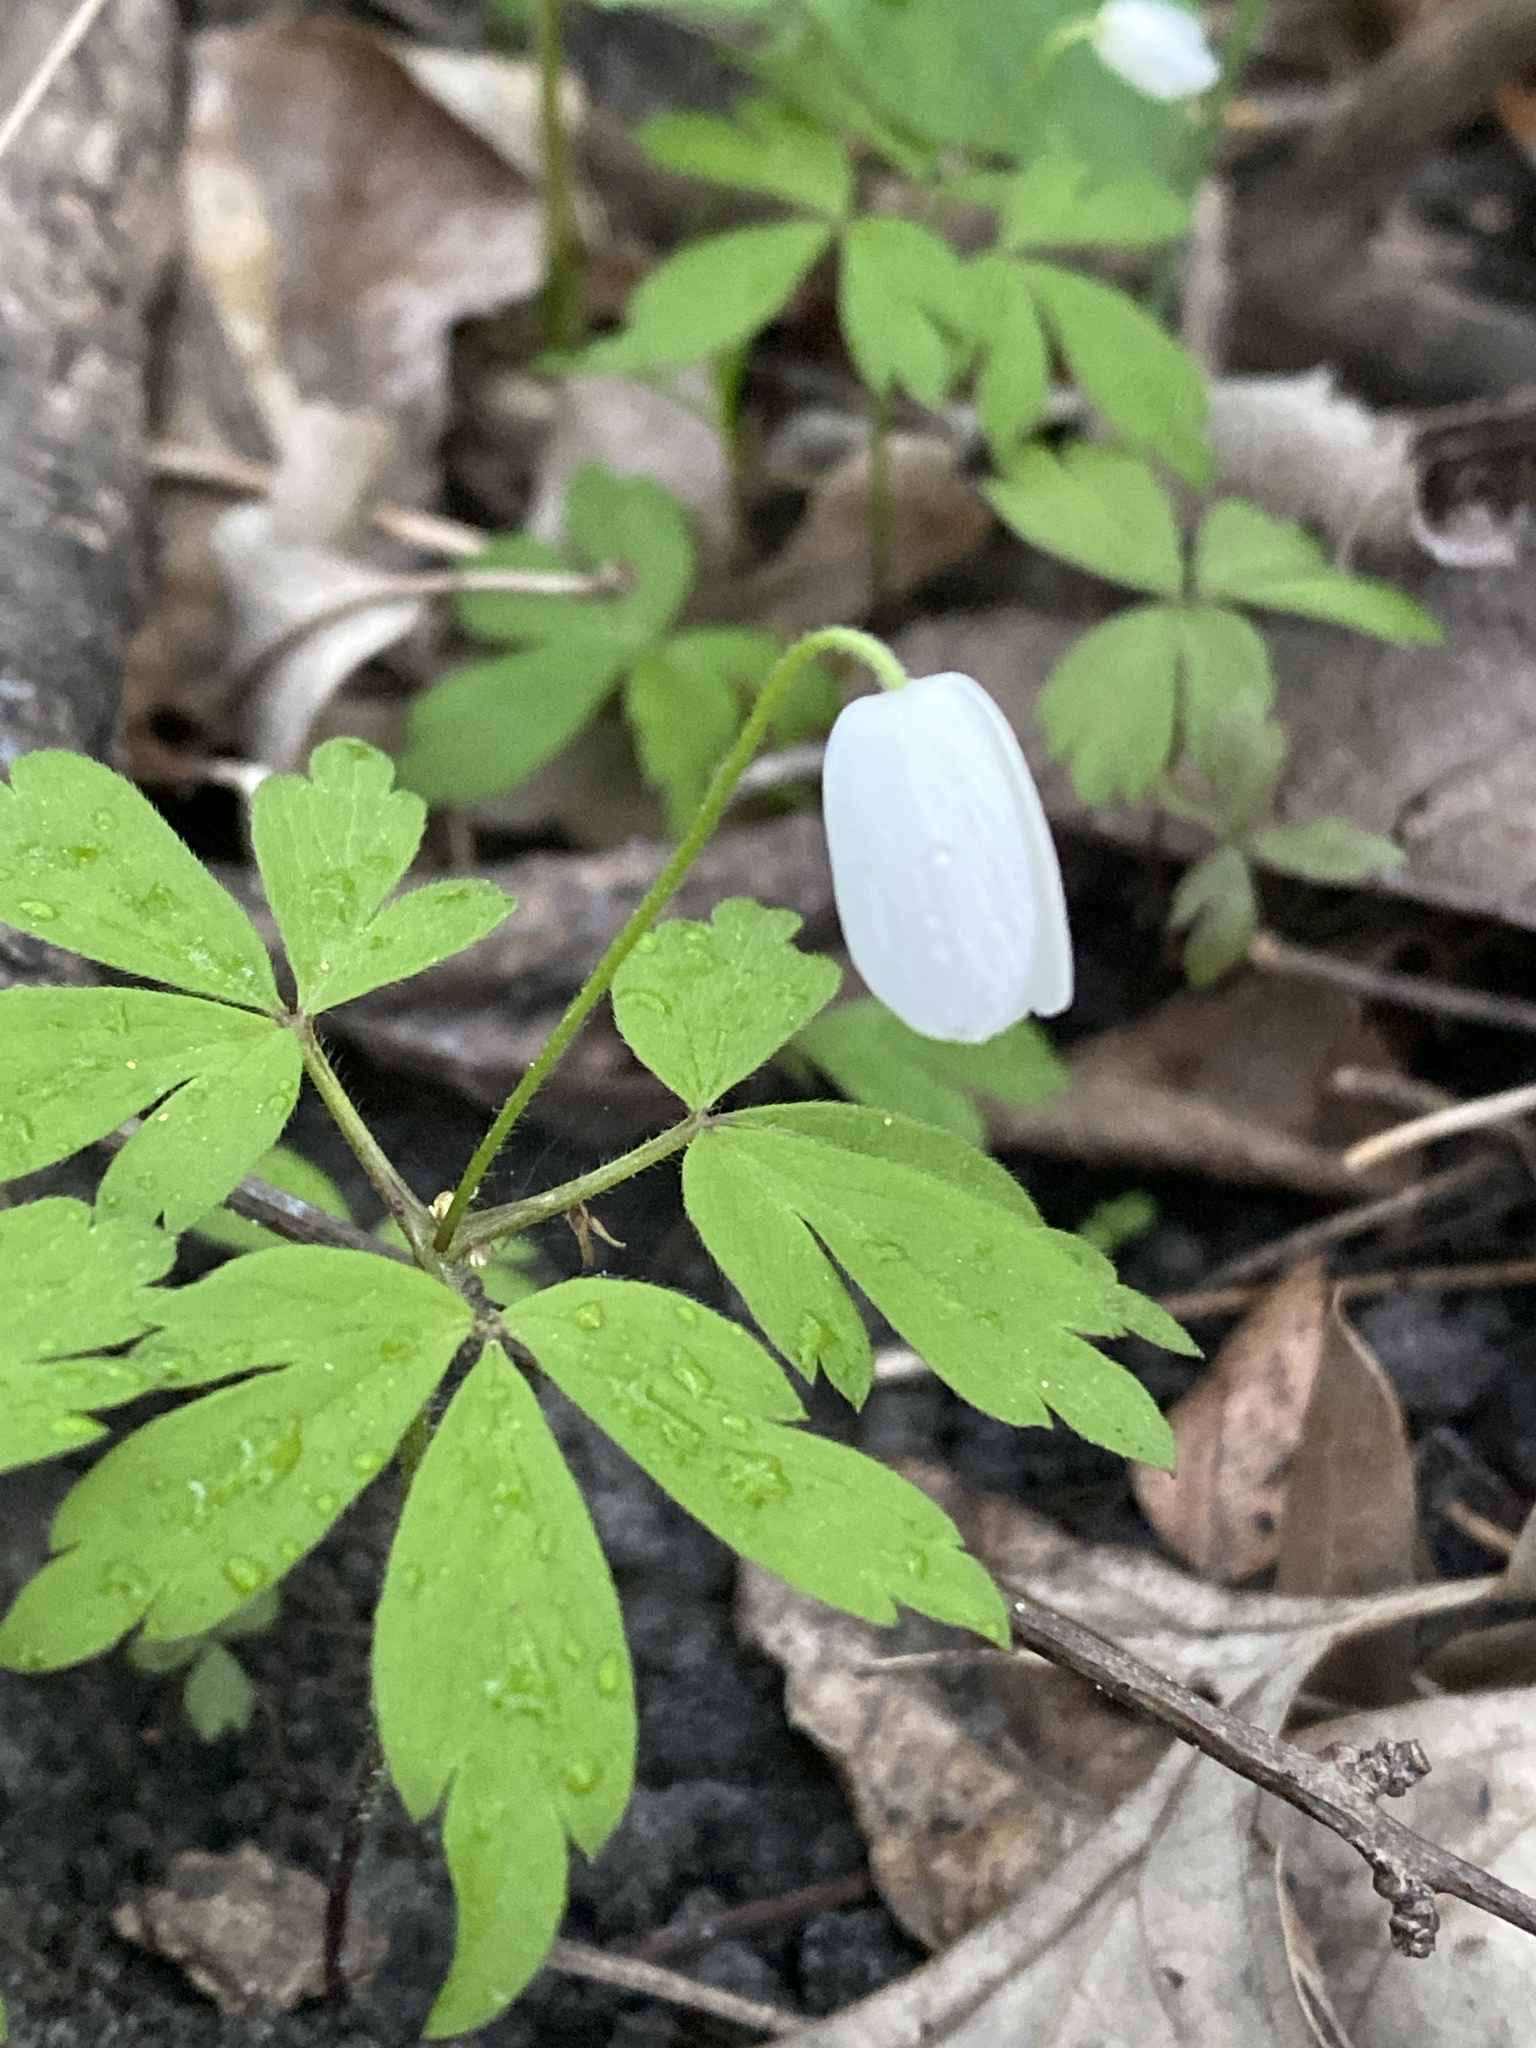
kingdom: Plantae
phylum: Tracheophyta
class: Magnoliopsida
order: Ranunculales
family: Ranunculaceae
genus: Anemone
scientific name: Anemone quinquefolia
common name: Wood anemone
